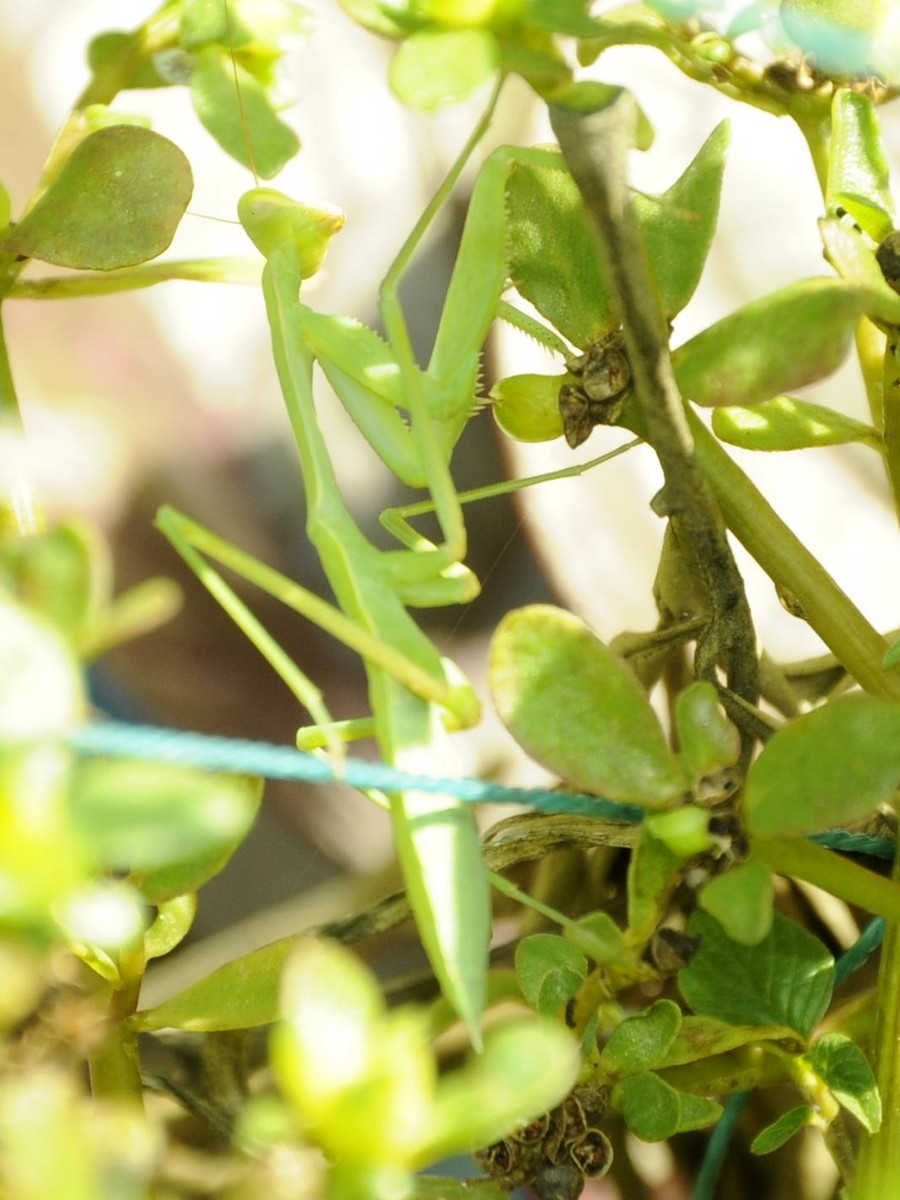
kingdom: Animalia
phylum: Arthropoda
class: Insecta
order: Mantodea
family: Mantidae
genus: Hierodula
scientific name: Hierodula membranacea
